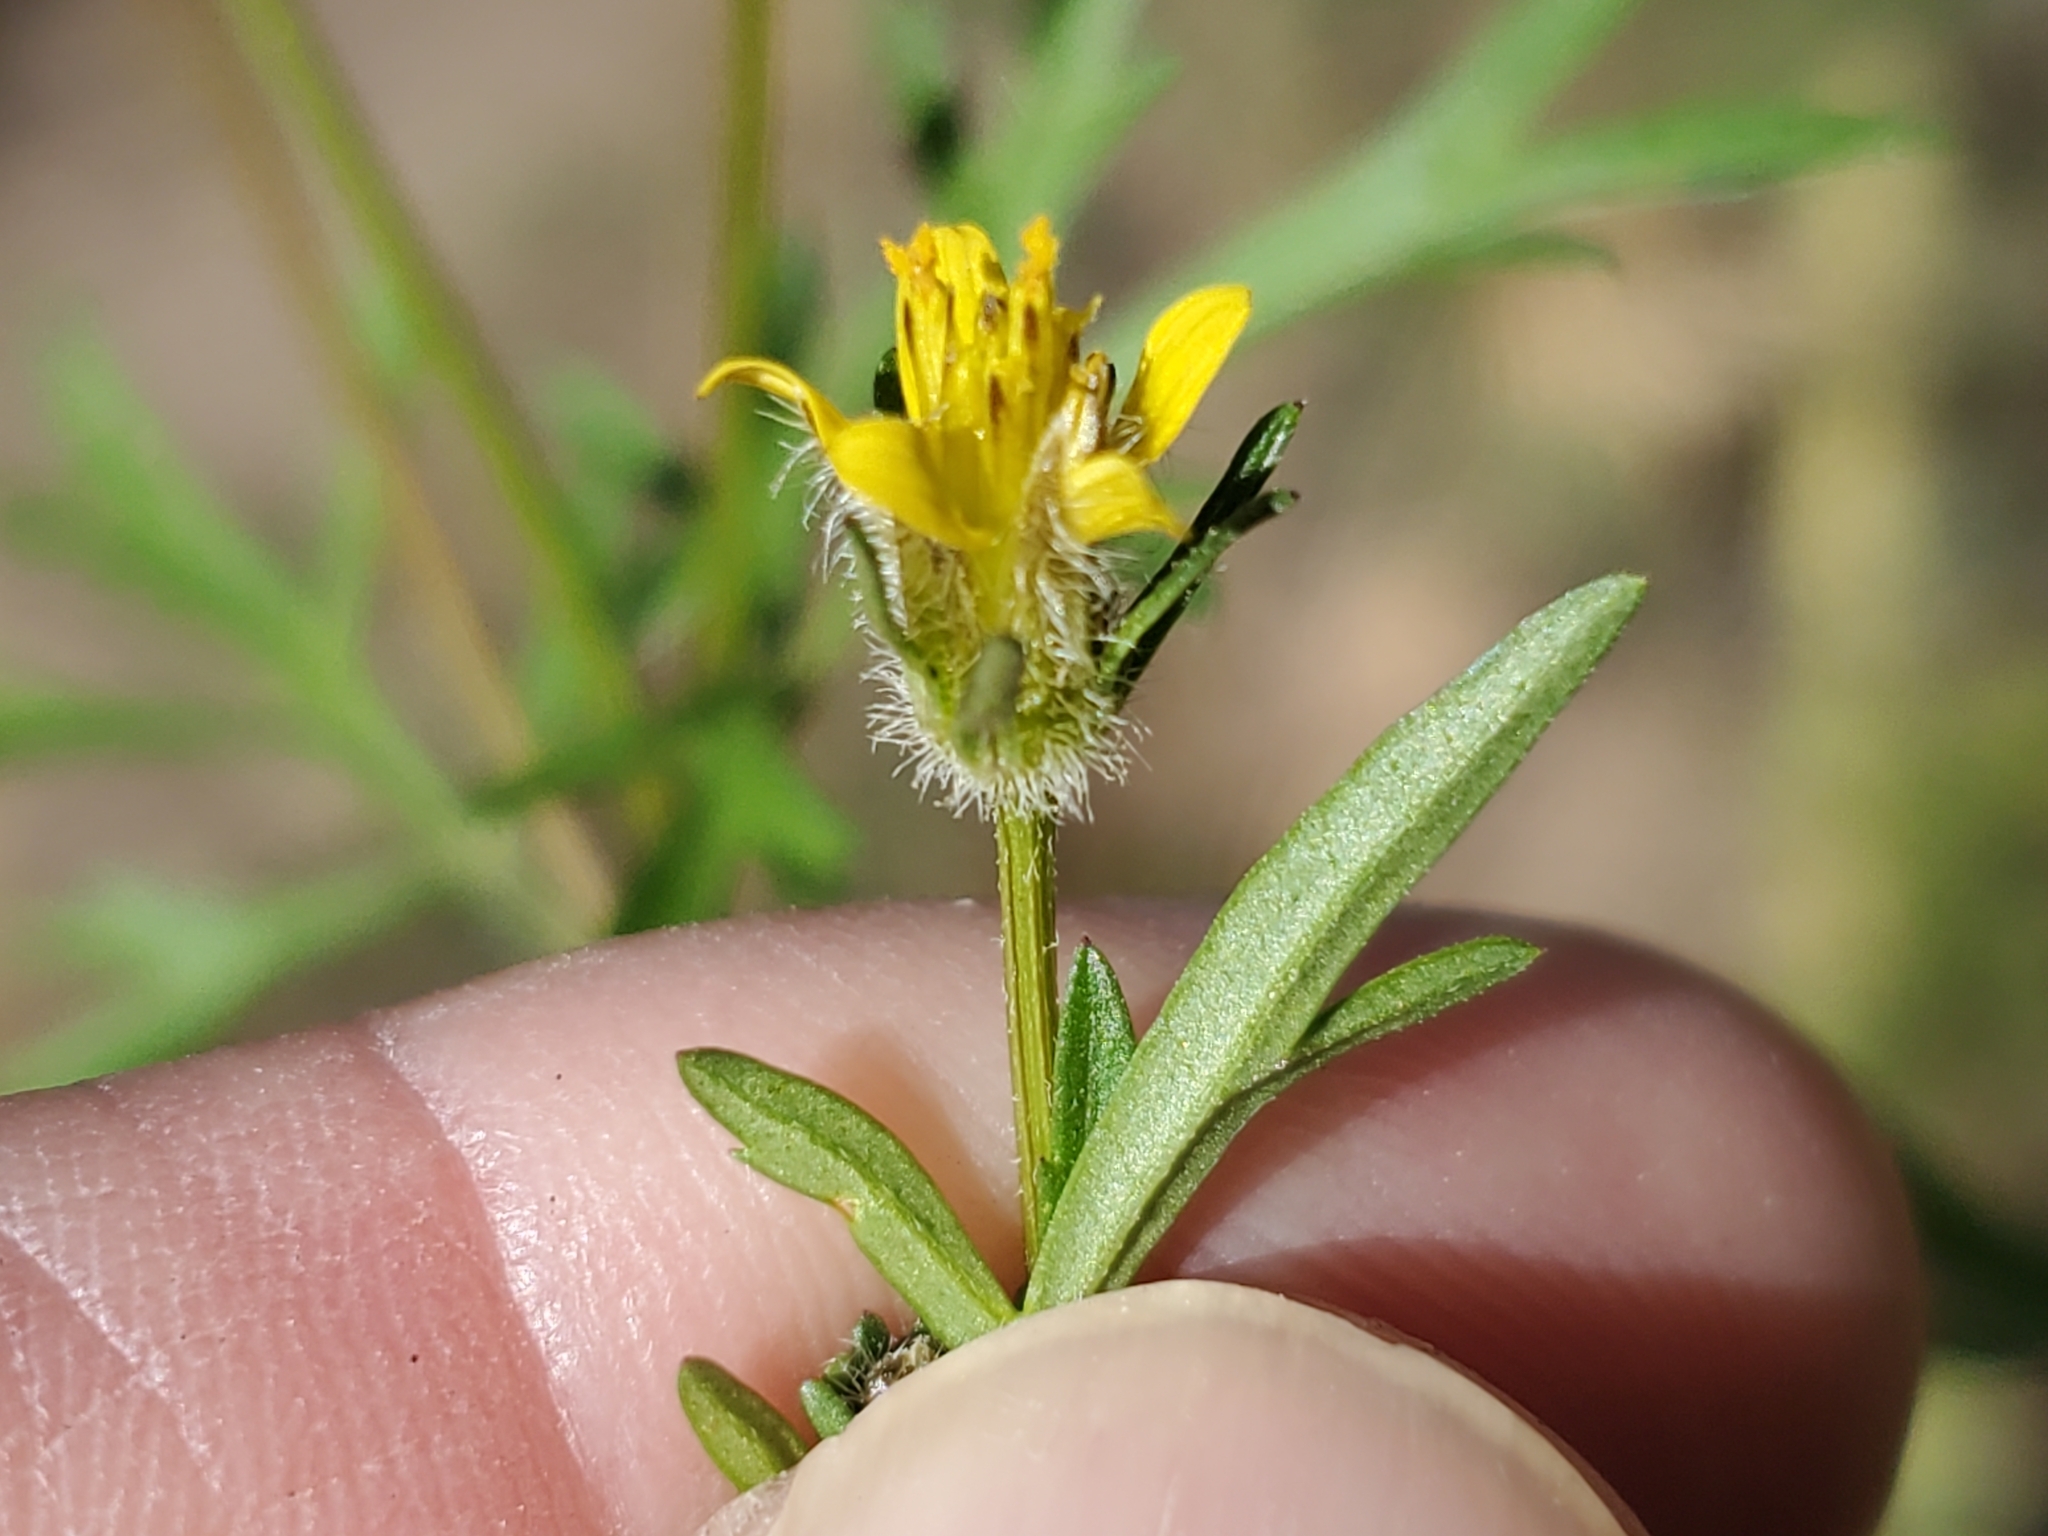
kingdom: Plantae
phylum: Tracheophyta
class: Magnoliopsida
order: Asterales
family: Asteraceae
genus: Bidens
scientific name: Bidens tenuisecta
